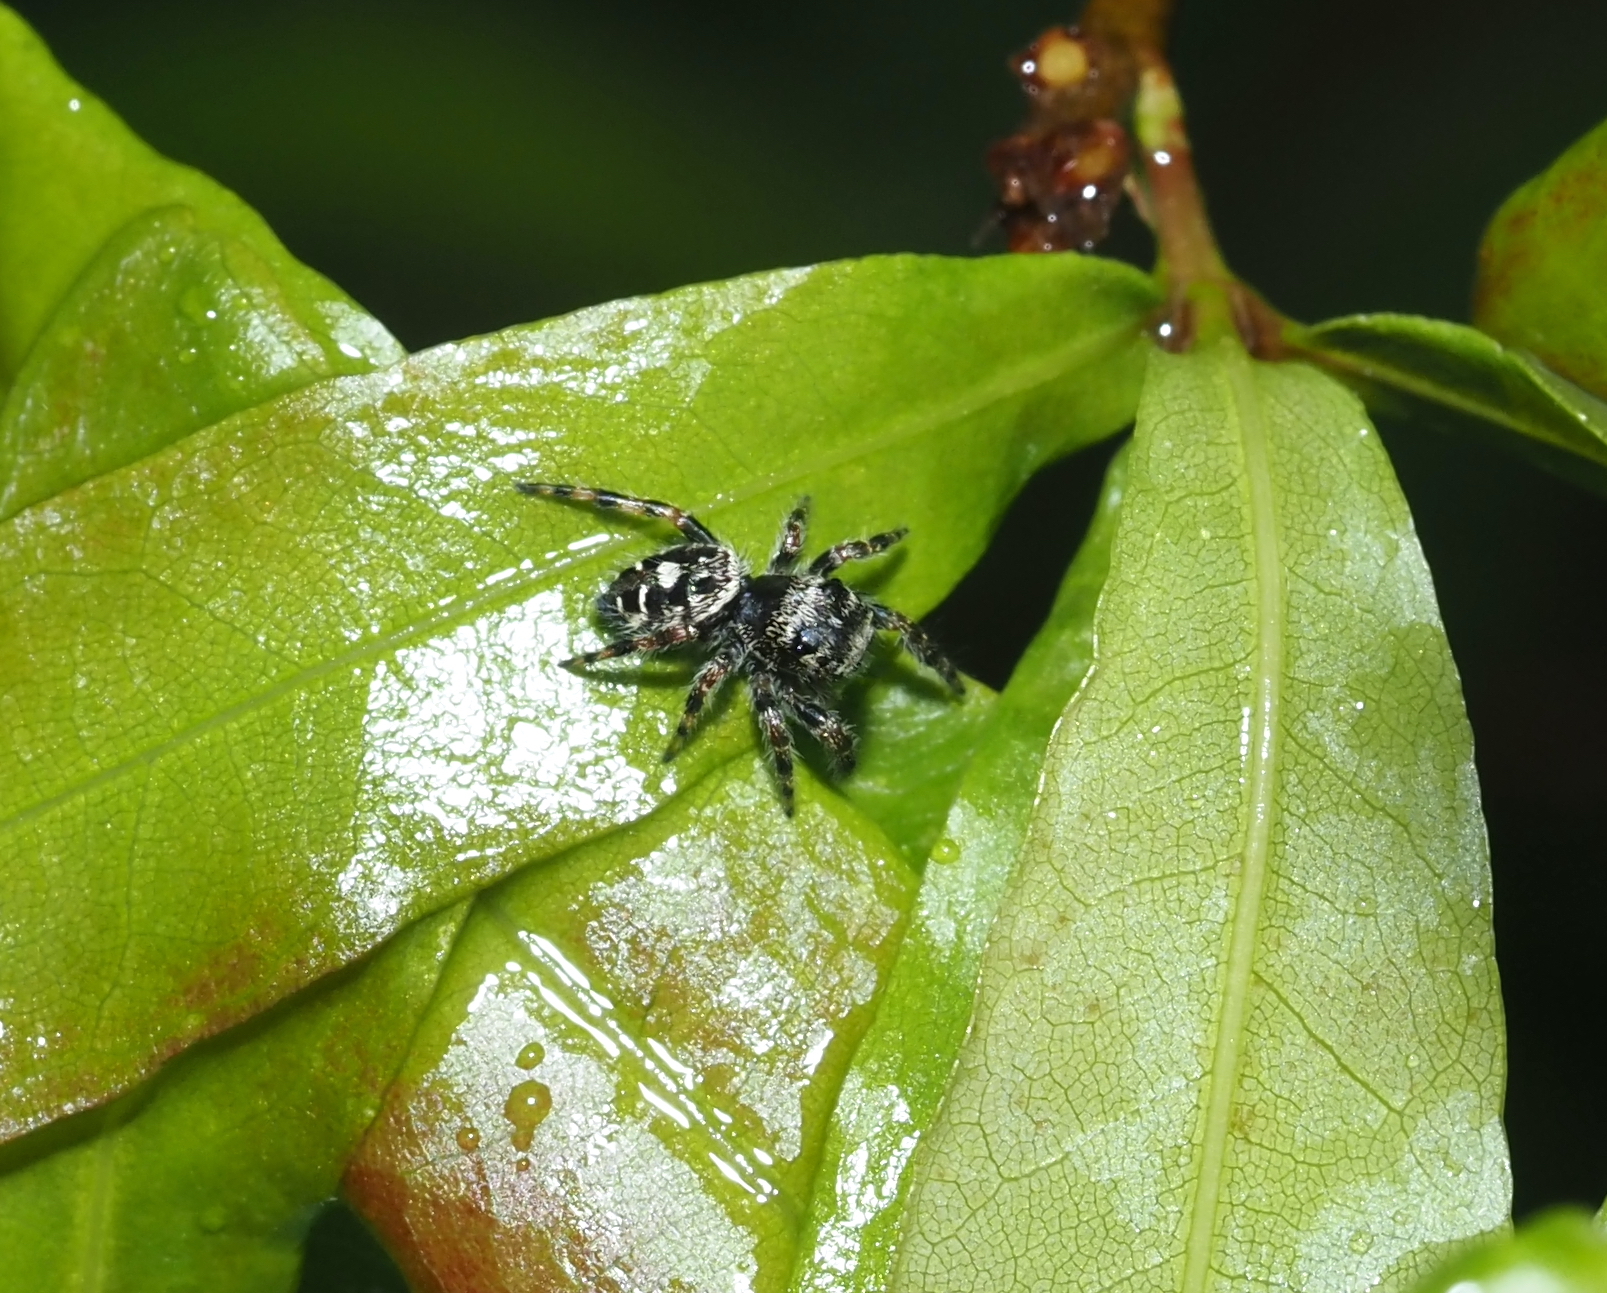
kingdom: Animalia
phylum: Arthropoda
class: Arachnida
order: Araneae
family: Salticidae
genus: Phidippus
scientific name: Phidippus putnami
